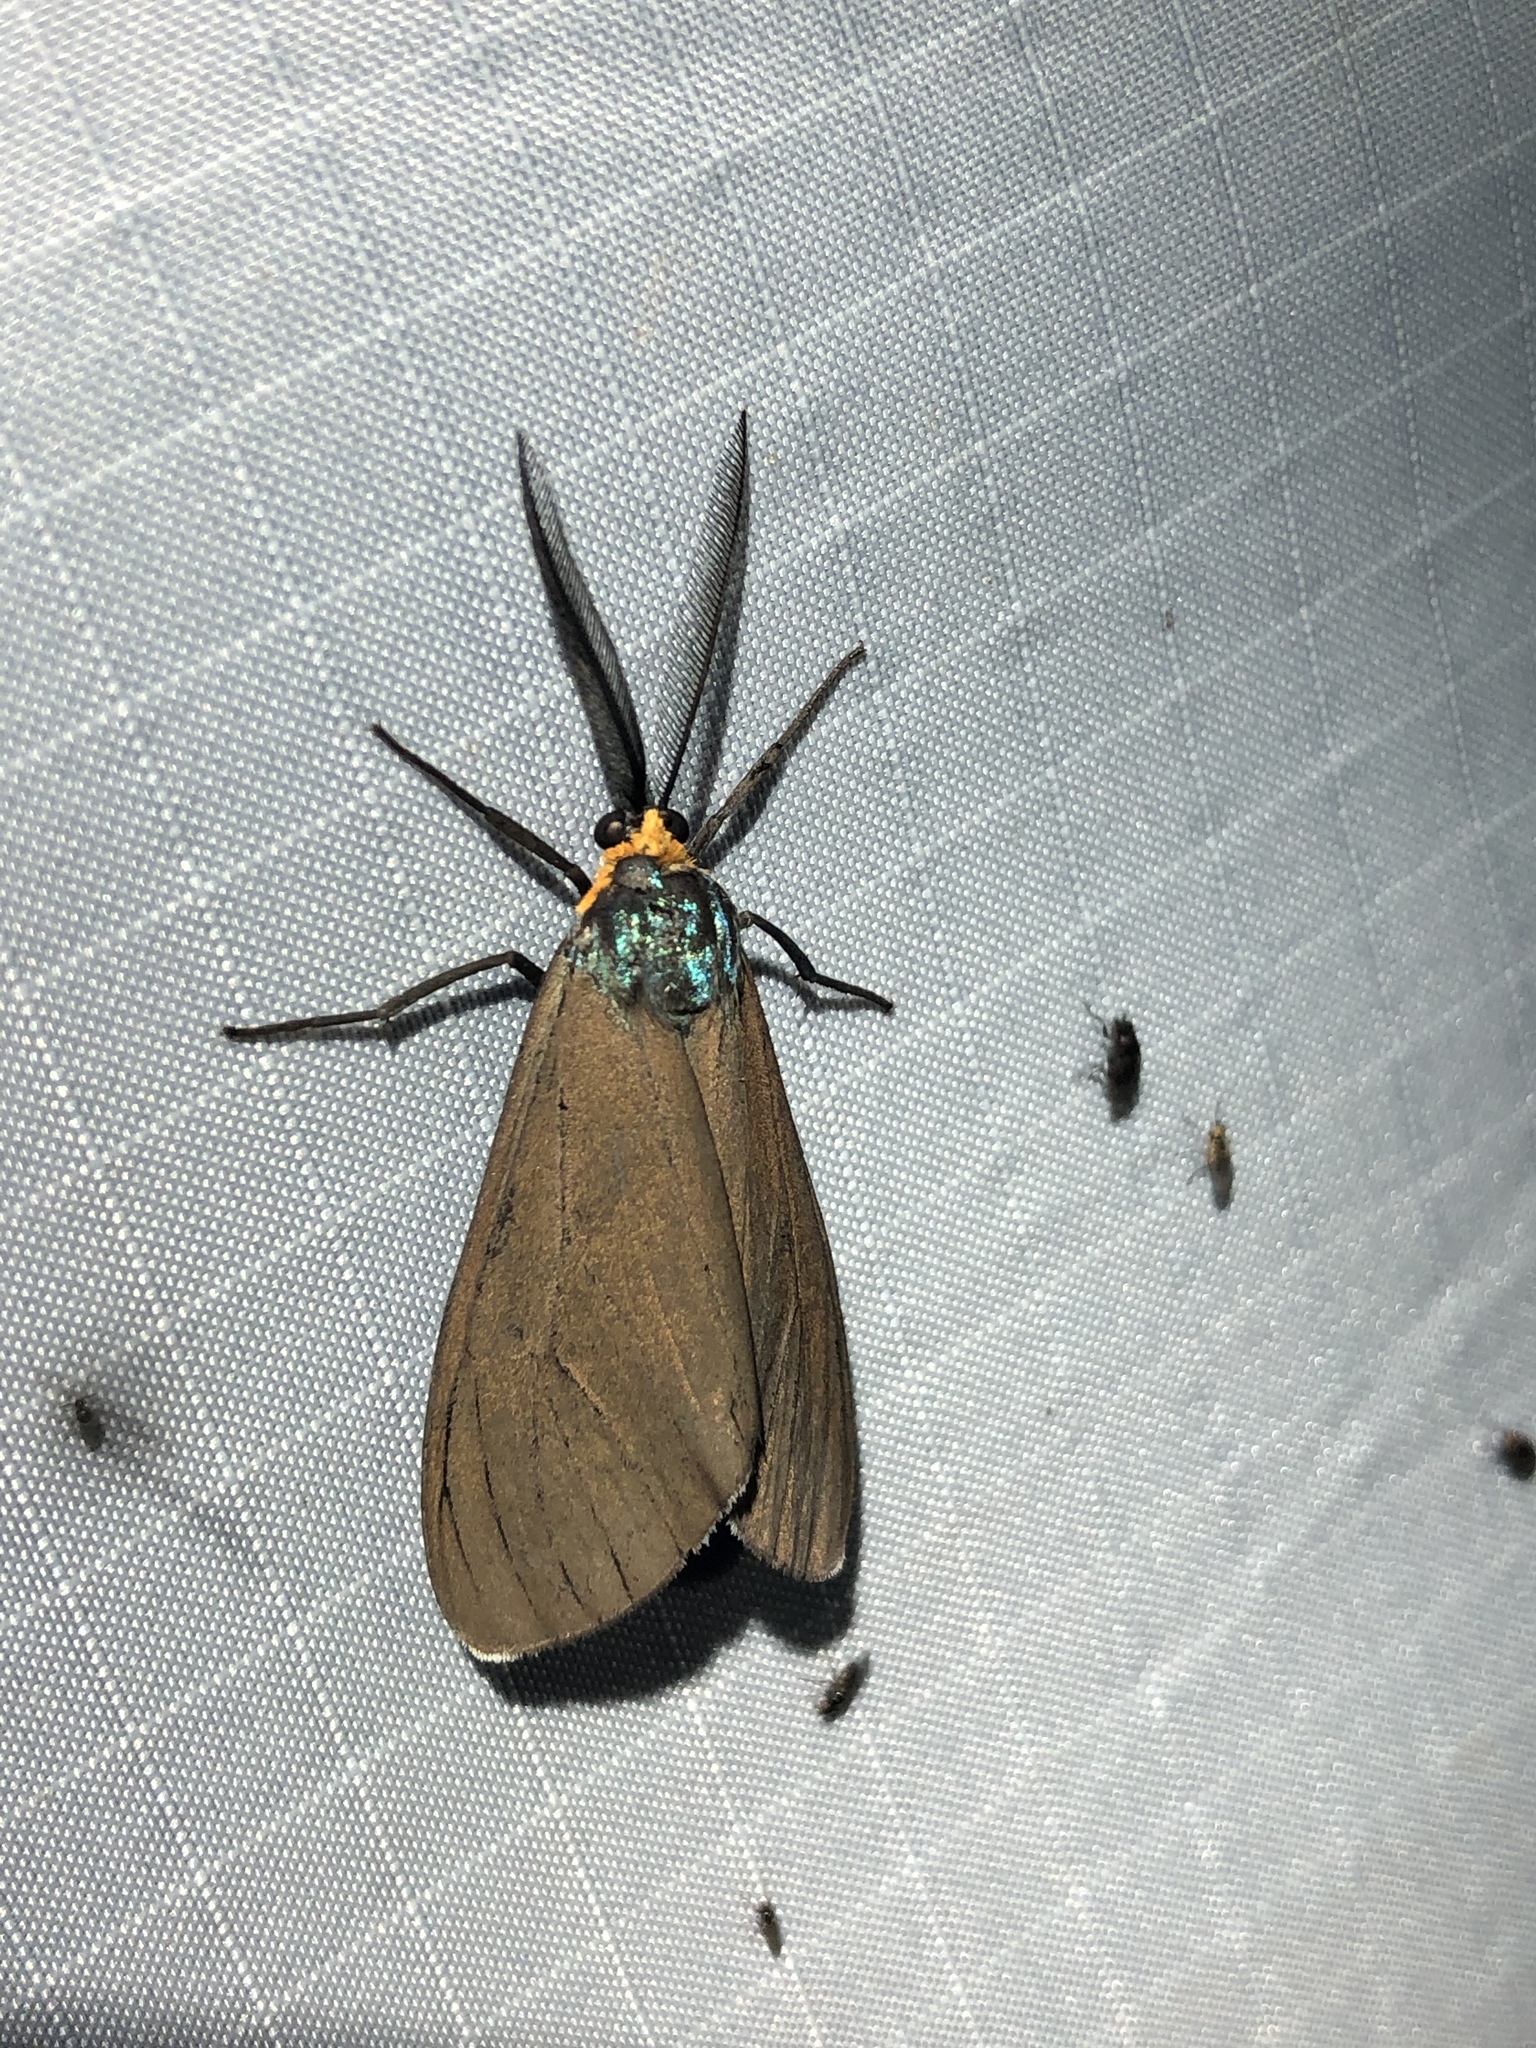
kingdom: Animalia
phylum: Arthropoda
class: Insecta
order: Lepidoptera
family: Erebidae
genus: Ctenucha
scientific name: Ctenucha virginica
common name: Virginia ctenucha moth
